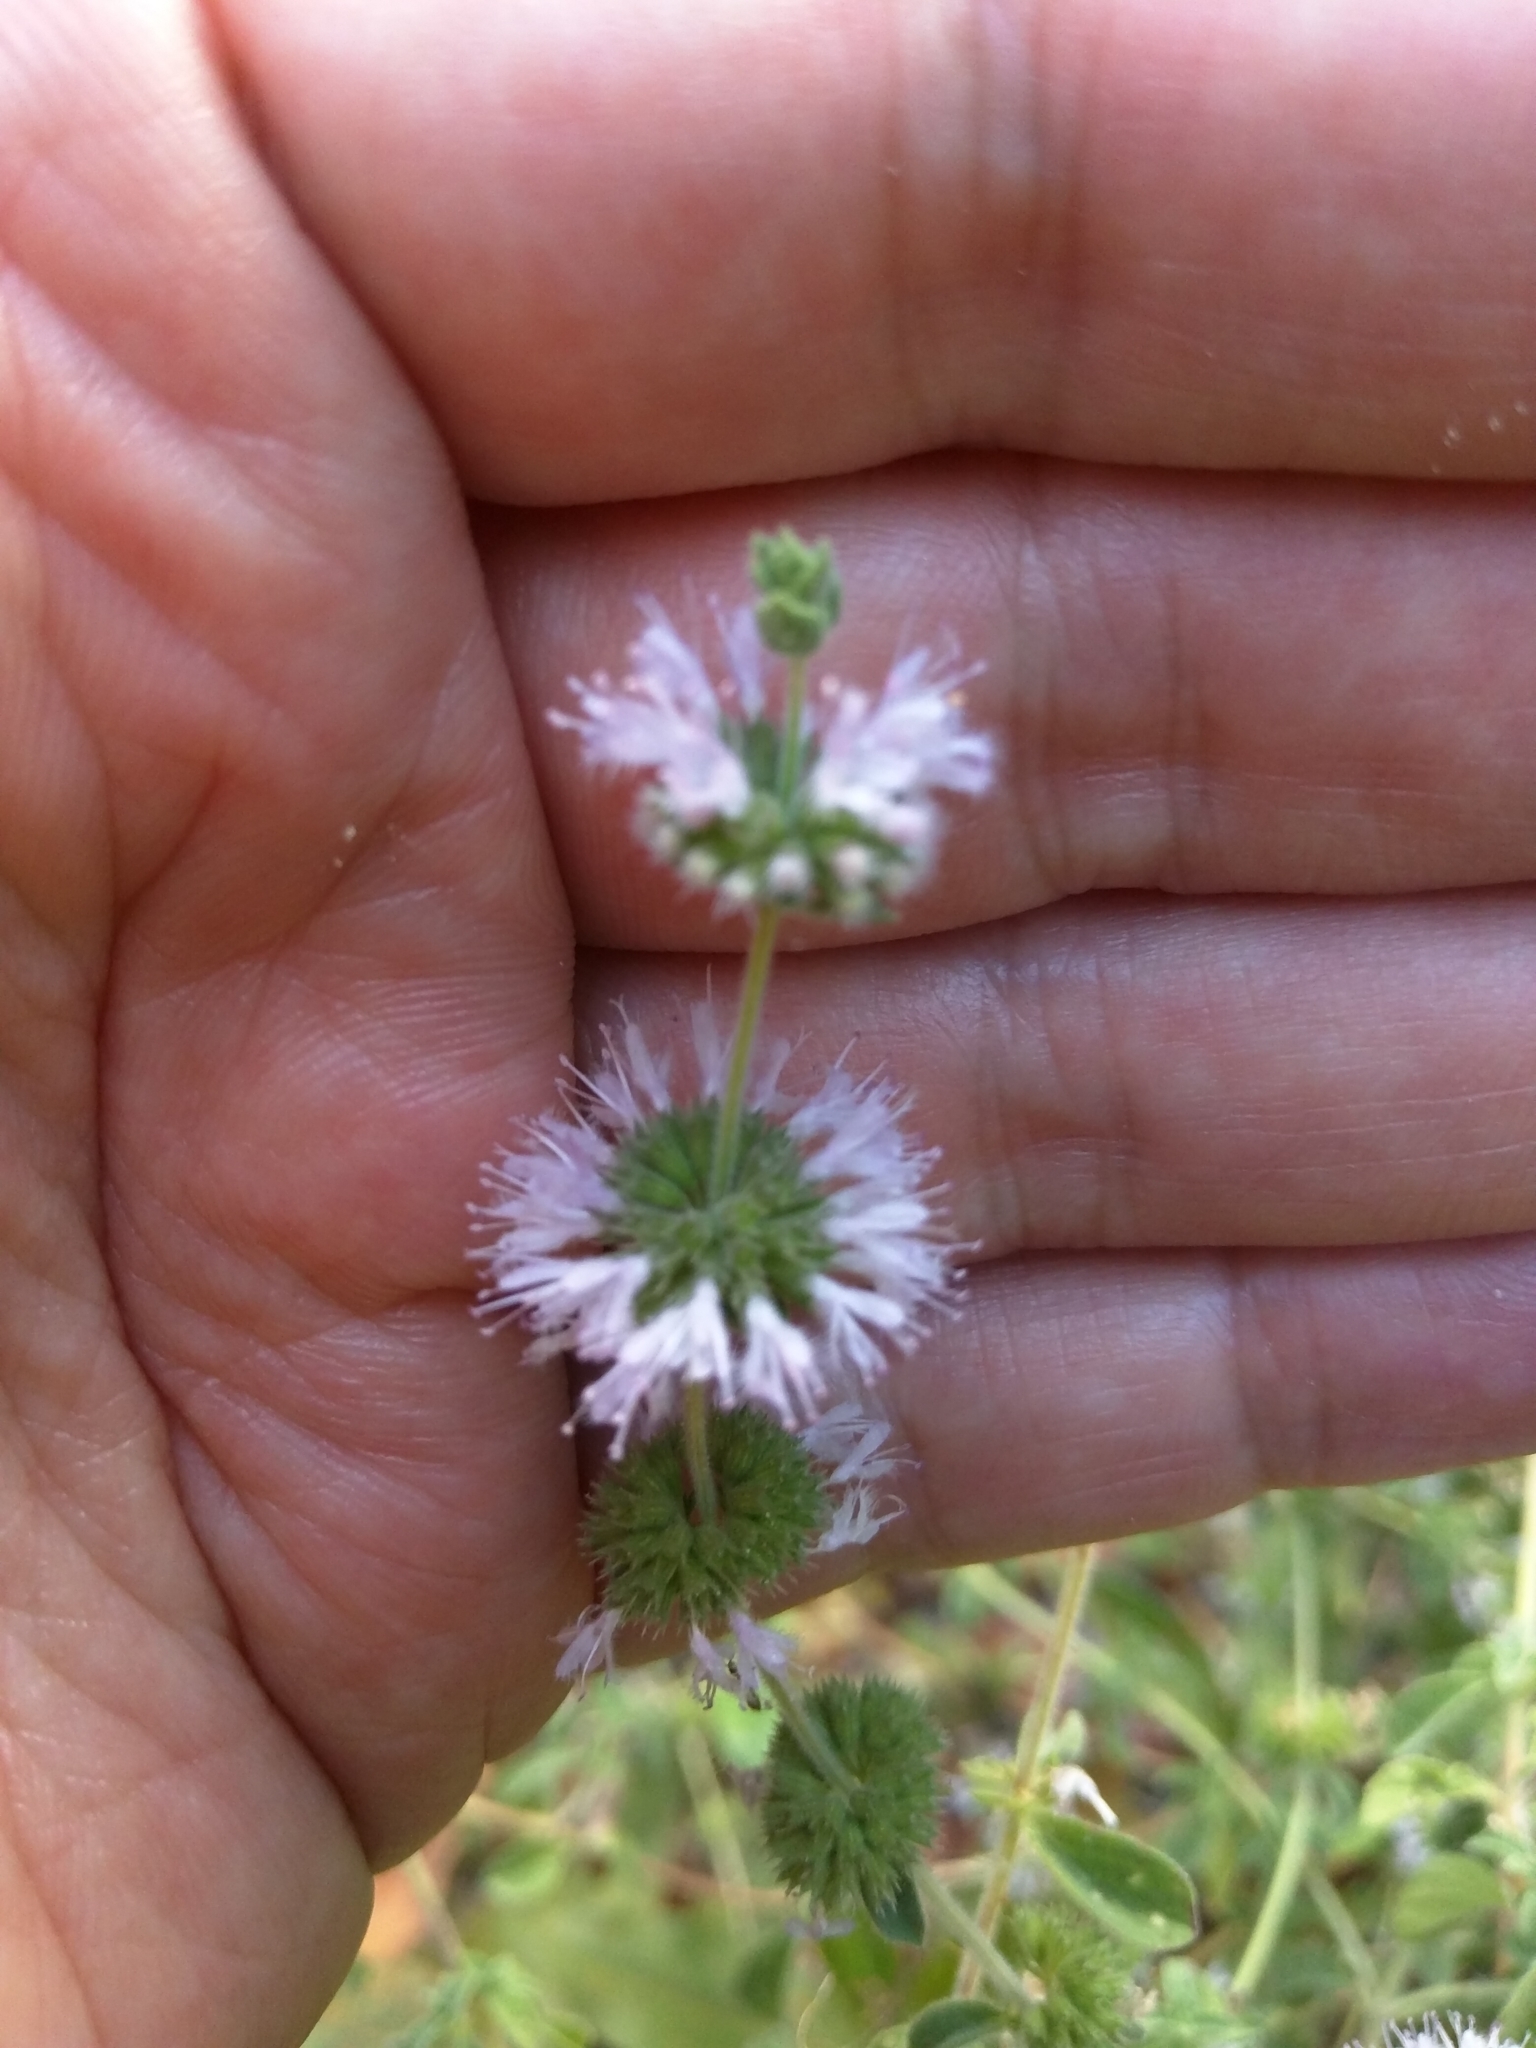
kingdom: Plantae
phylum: Tracheophyta
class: Magnoliopsida
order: Lamiales
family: Lamiaceae
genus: Mentha
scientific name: Mentha pulegium
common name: Pennyroyal
